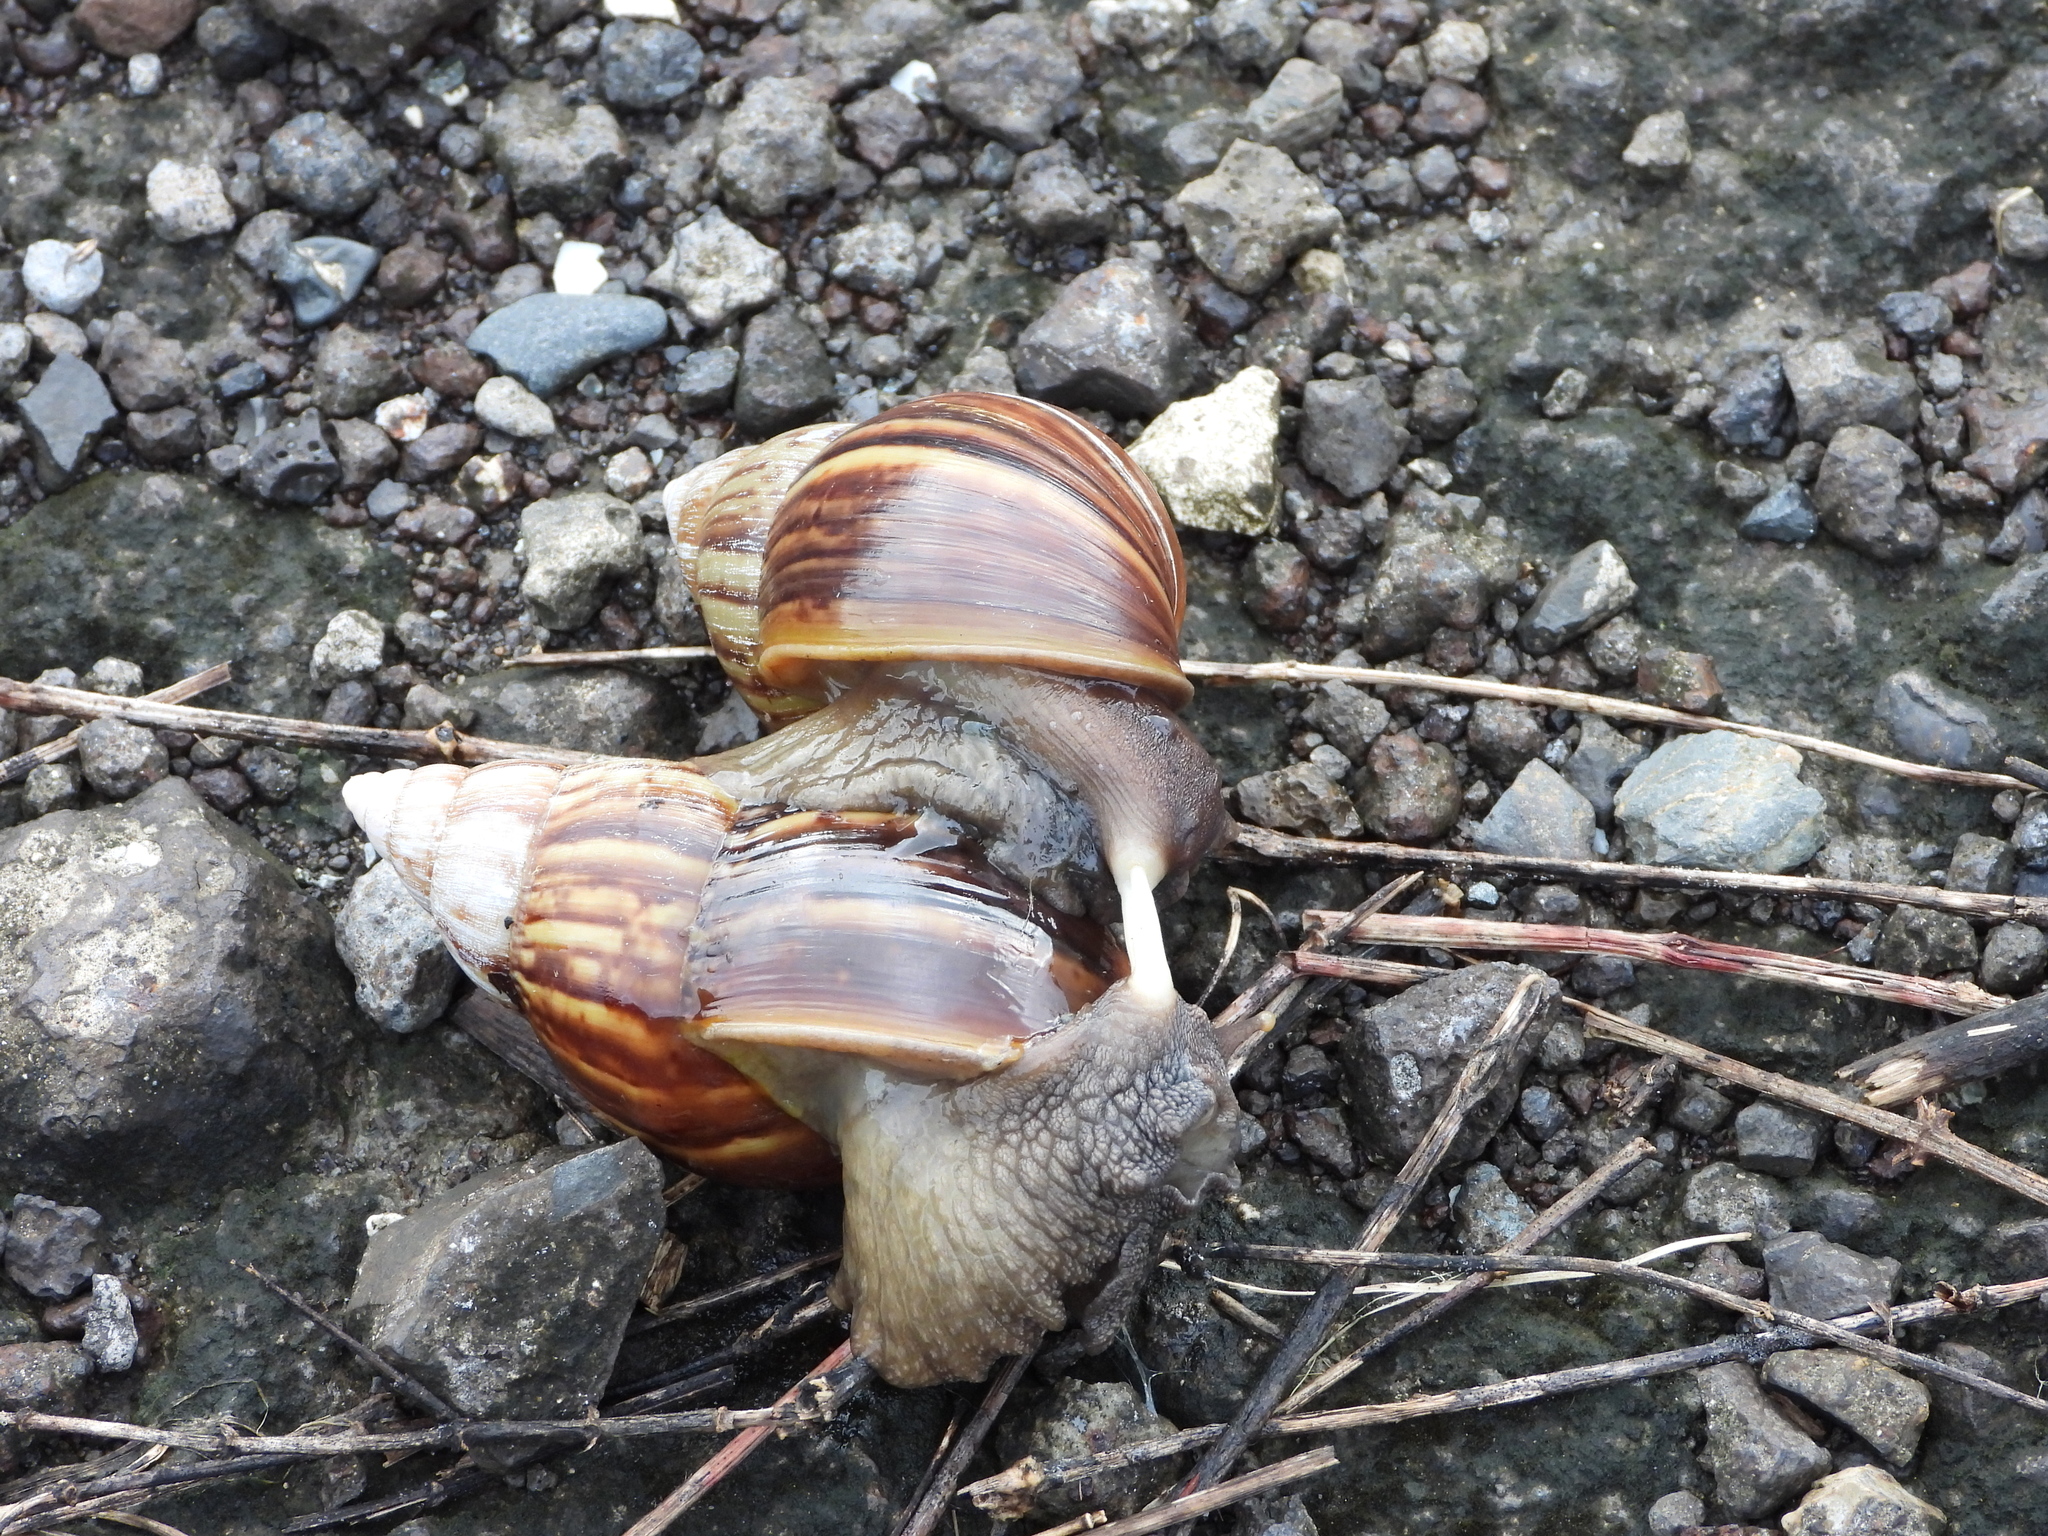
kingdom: Animalia
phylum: Mollusca
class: Gastropoda
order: Stylommatophora
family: Achatinidae
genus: Lissachatina
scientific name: Lissachatina fulica
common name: Giant african snail
